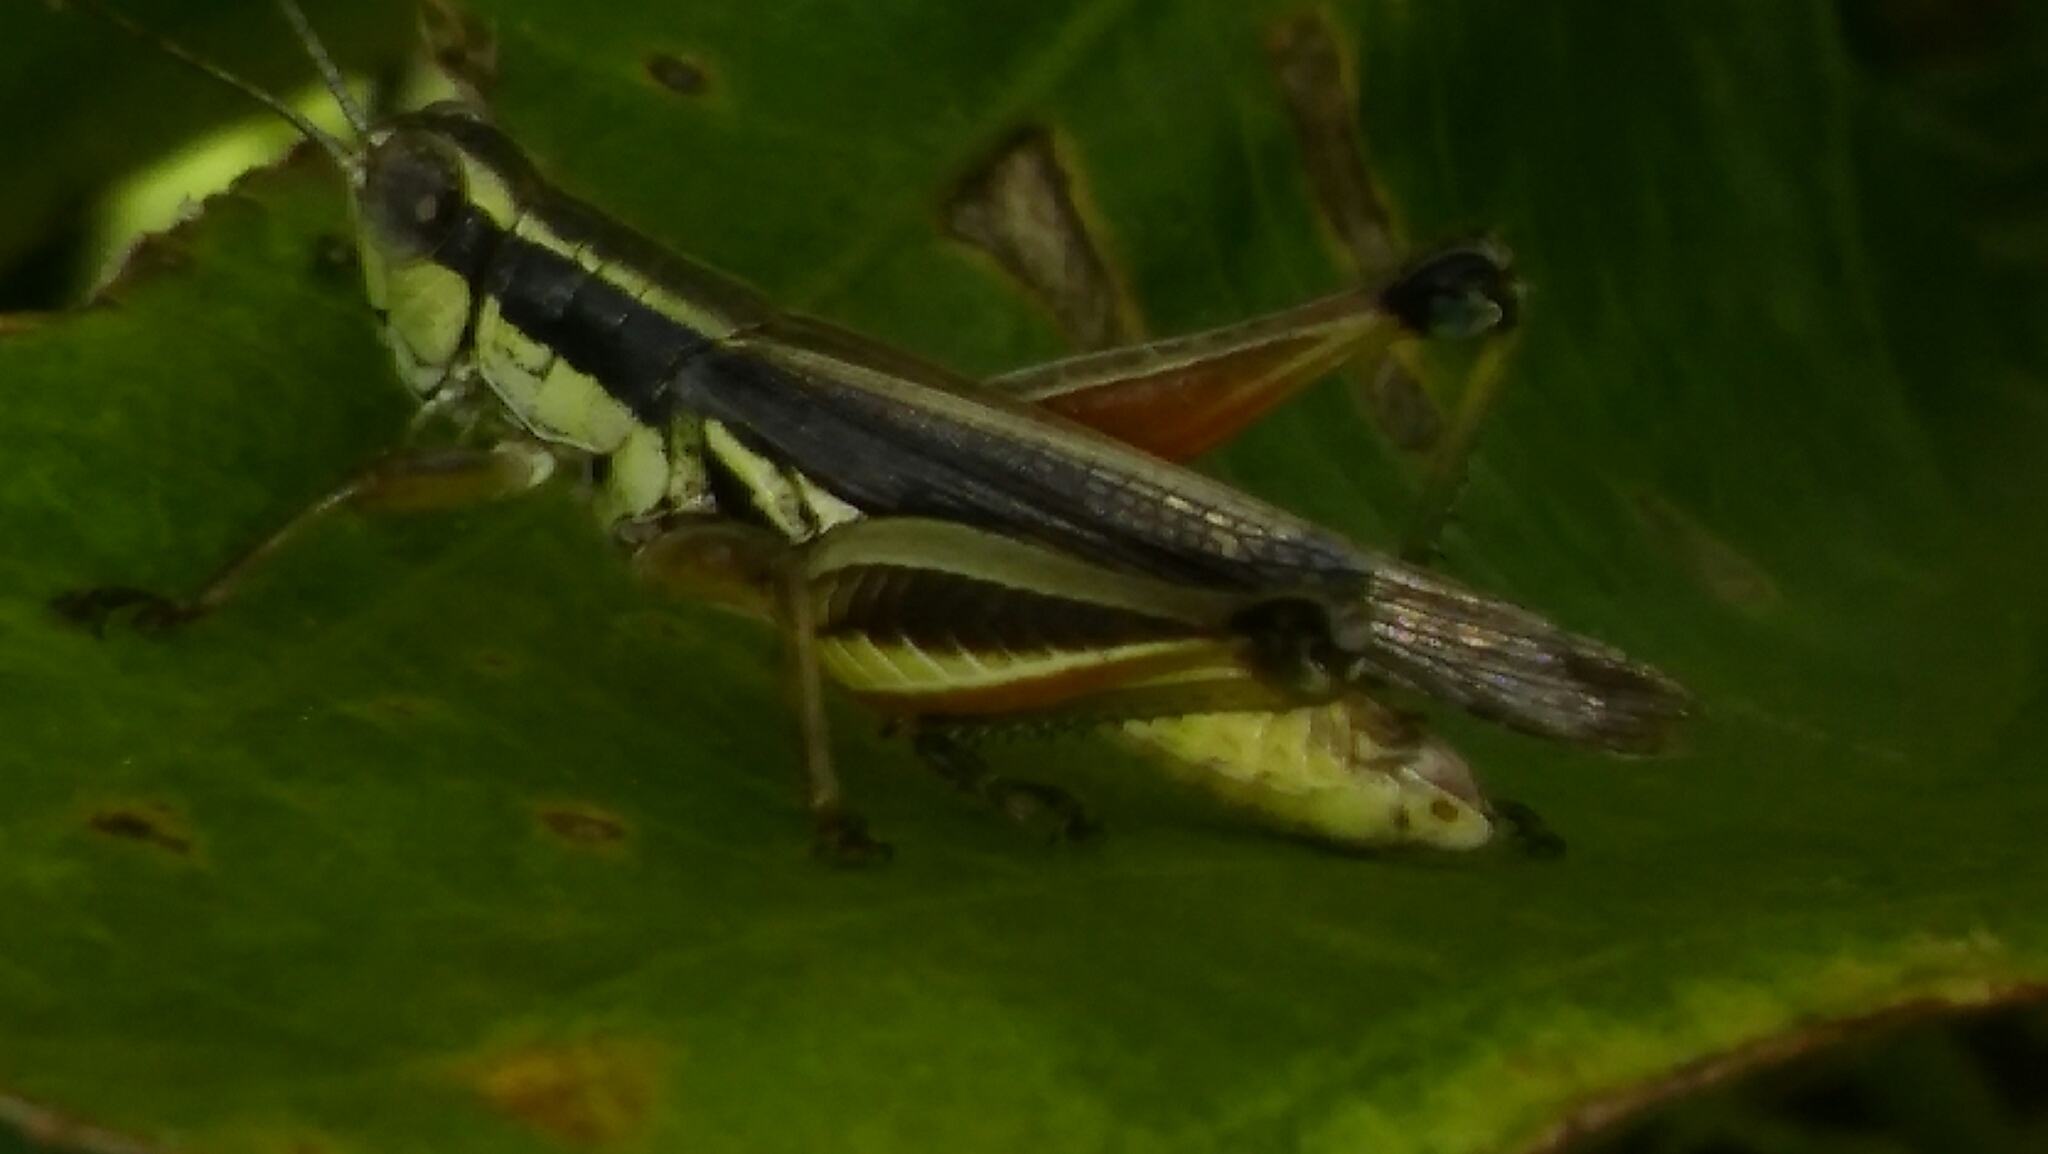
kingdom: Animalia
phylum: Arthropoda
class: Insecta
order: Orthoptera
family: Acrididae
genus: Dichroplus
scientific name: Dichroplus elongatus
